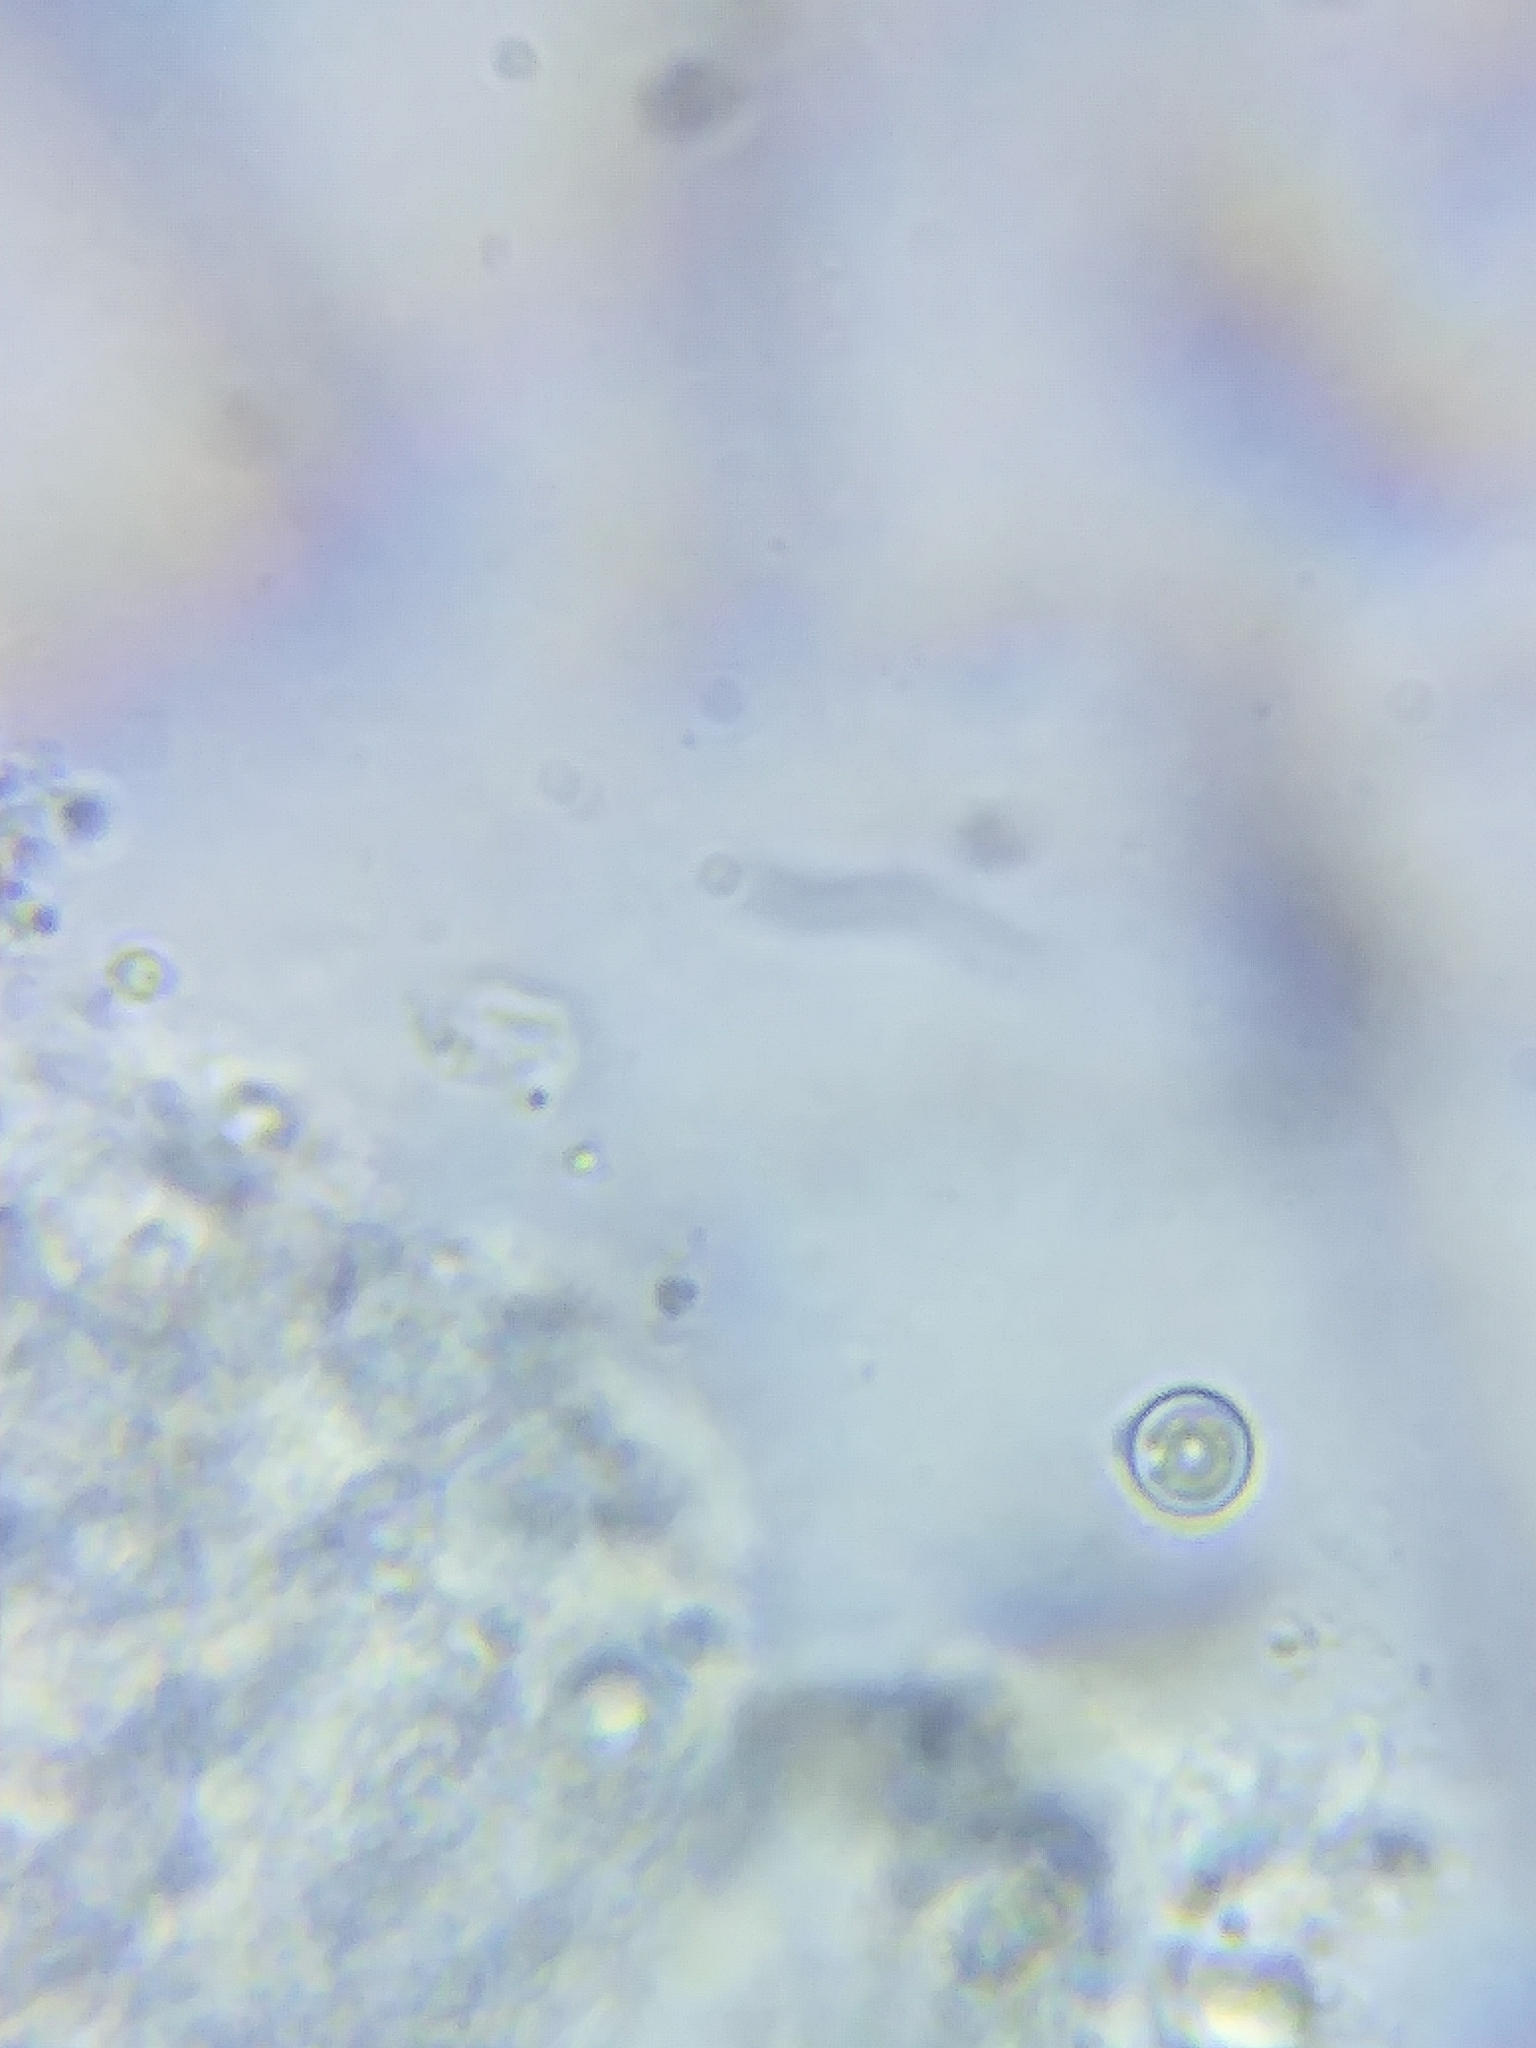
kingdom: Fungi
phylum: Basidiomycota
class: Agaricomycetes
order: Agaricales
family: Tricholomataceae
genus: Leucocybe
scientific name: Leucocybe candicans
